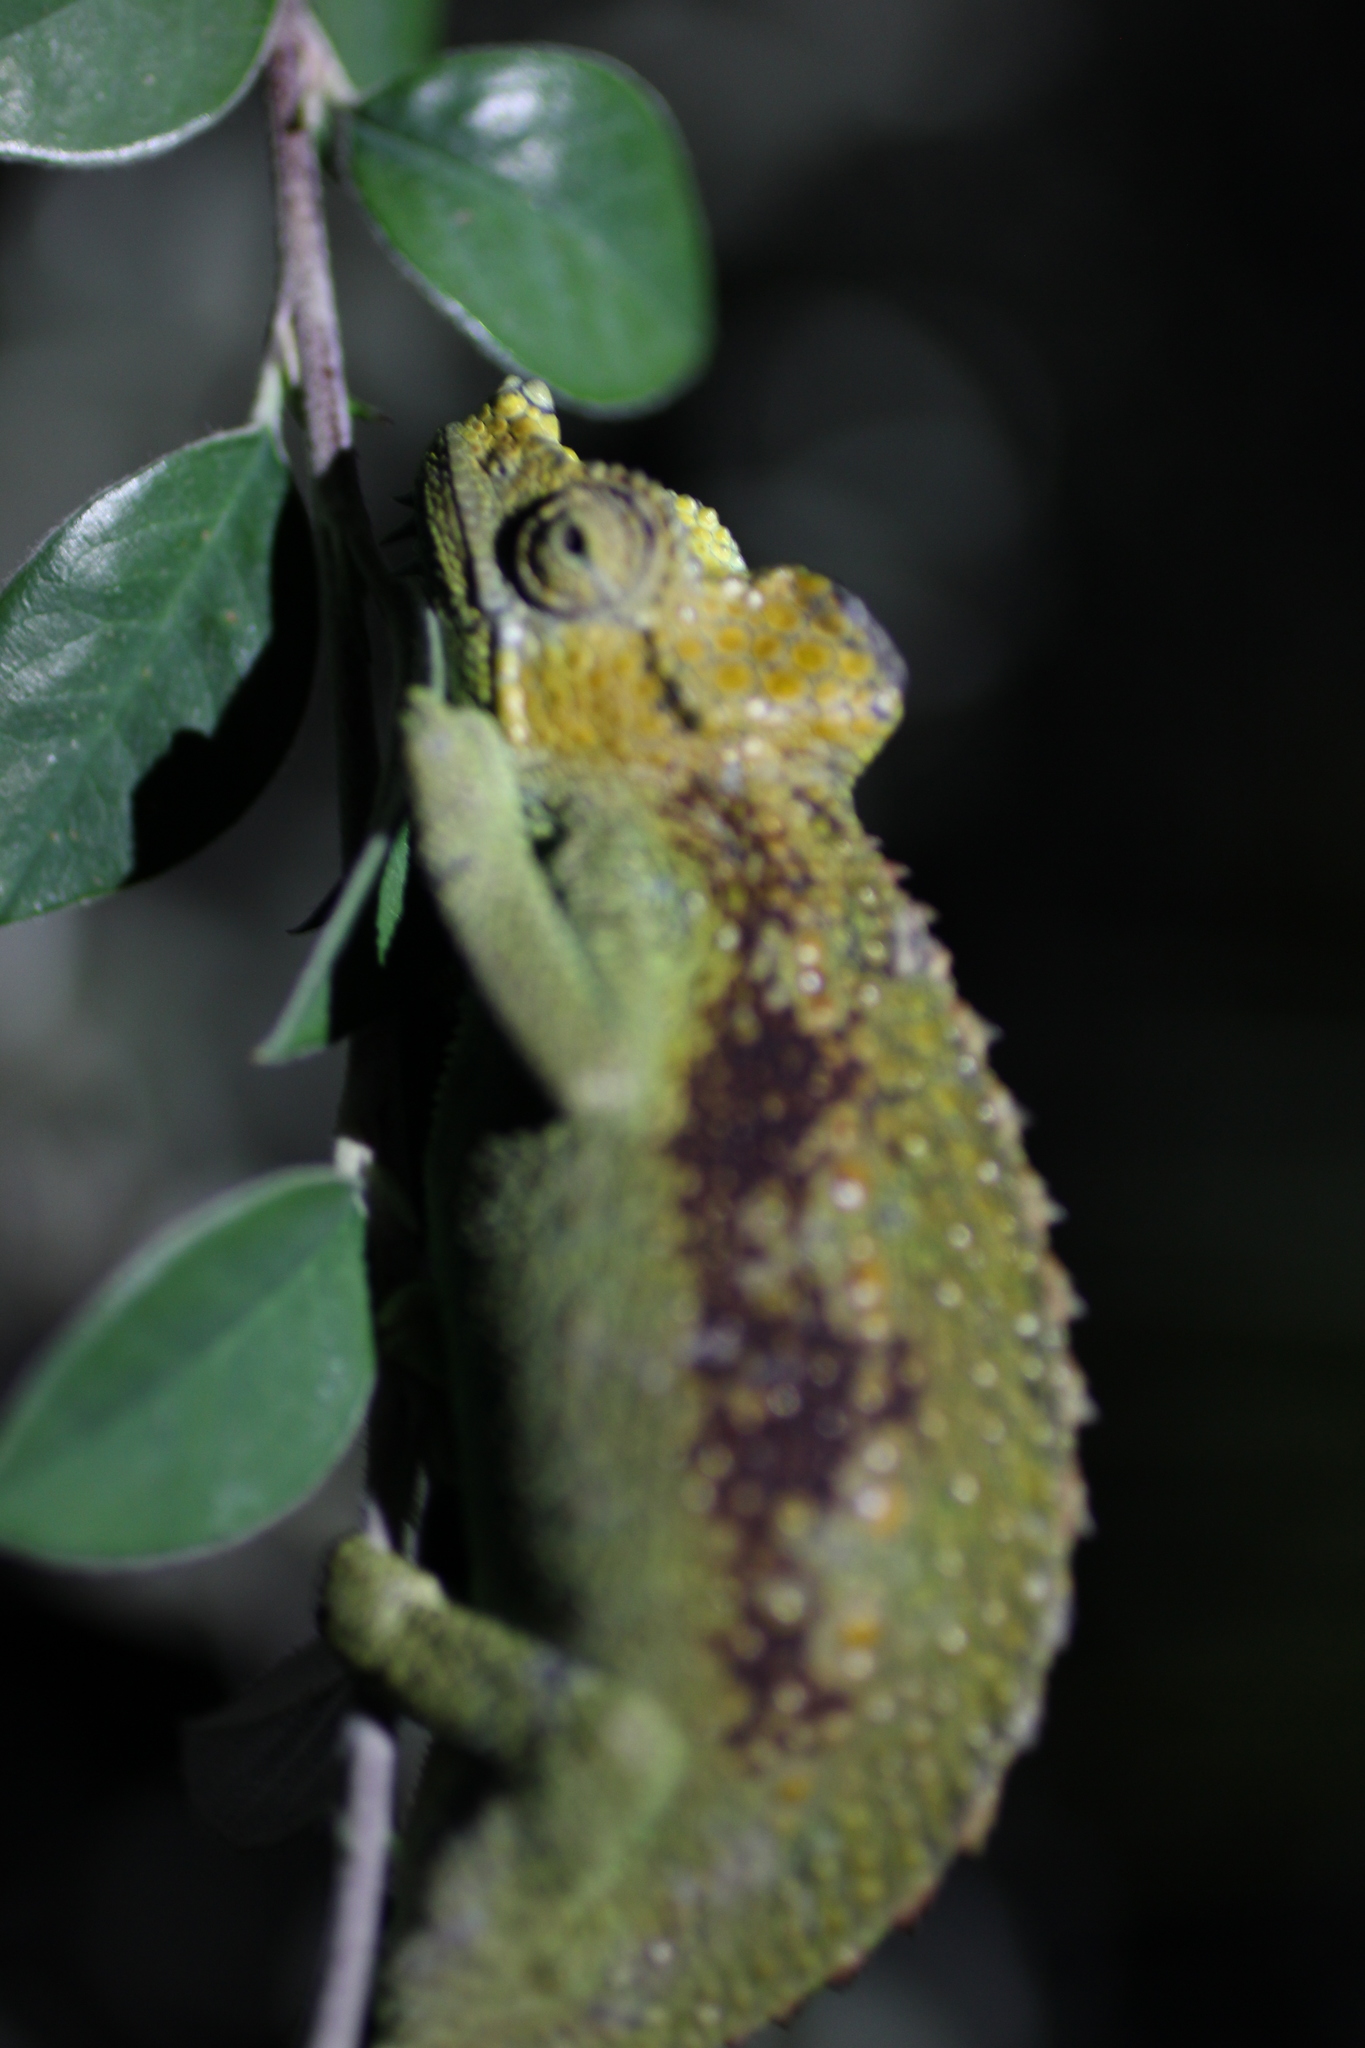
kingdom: Animalia
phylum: Chordata
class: Squamata
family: Chamaeleonidae
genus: Trioceros
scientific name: Trioceros hoehnelii
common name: High-casqued chameleon
